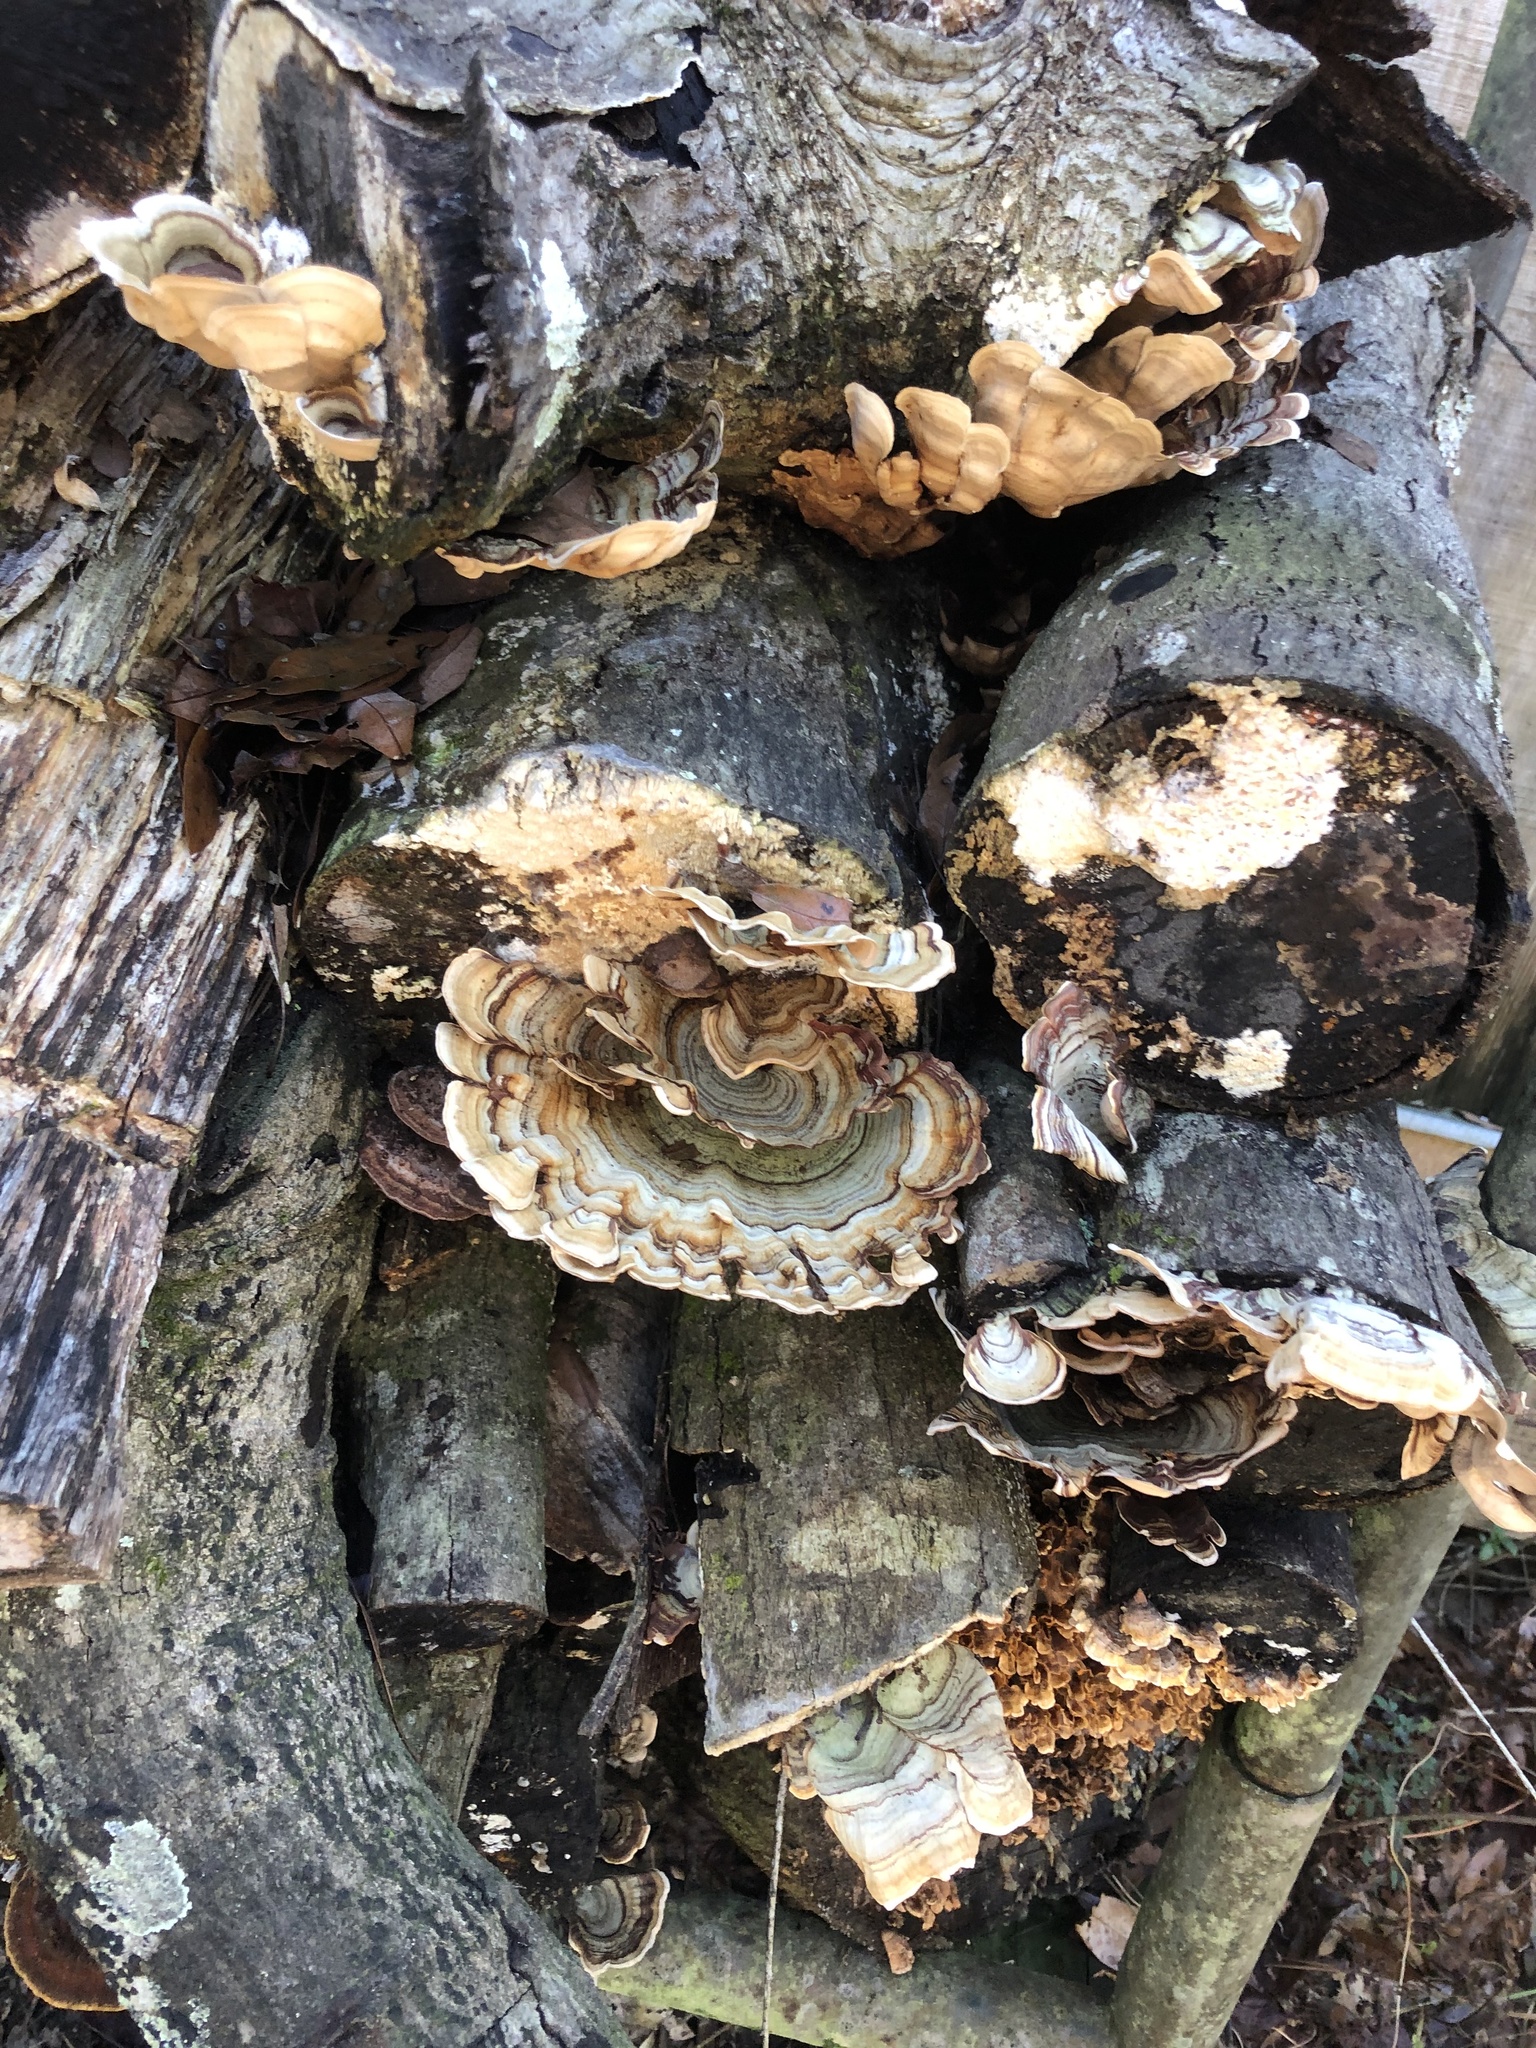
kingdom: Fungi
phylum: Basidiomycota
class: Agaricomycetes
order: Russulales
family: Stereaceae
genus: Stereum
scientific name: Stereum lobatum
